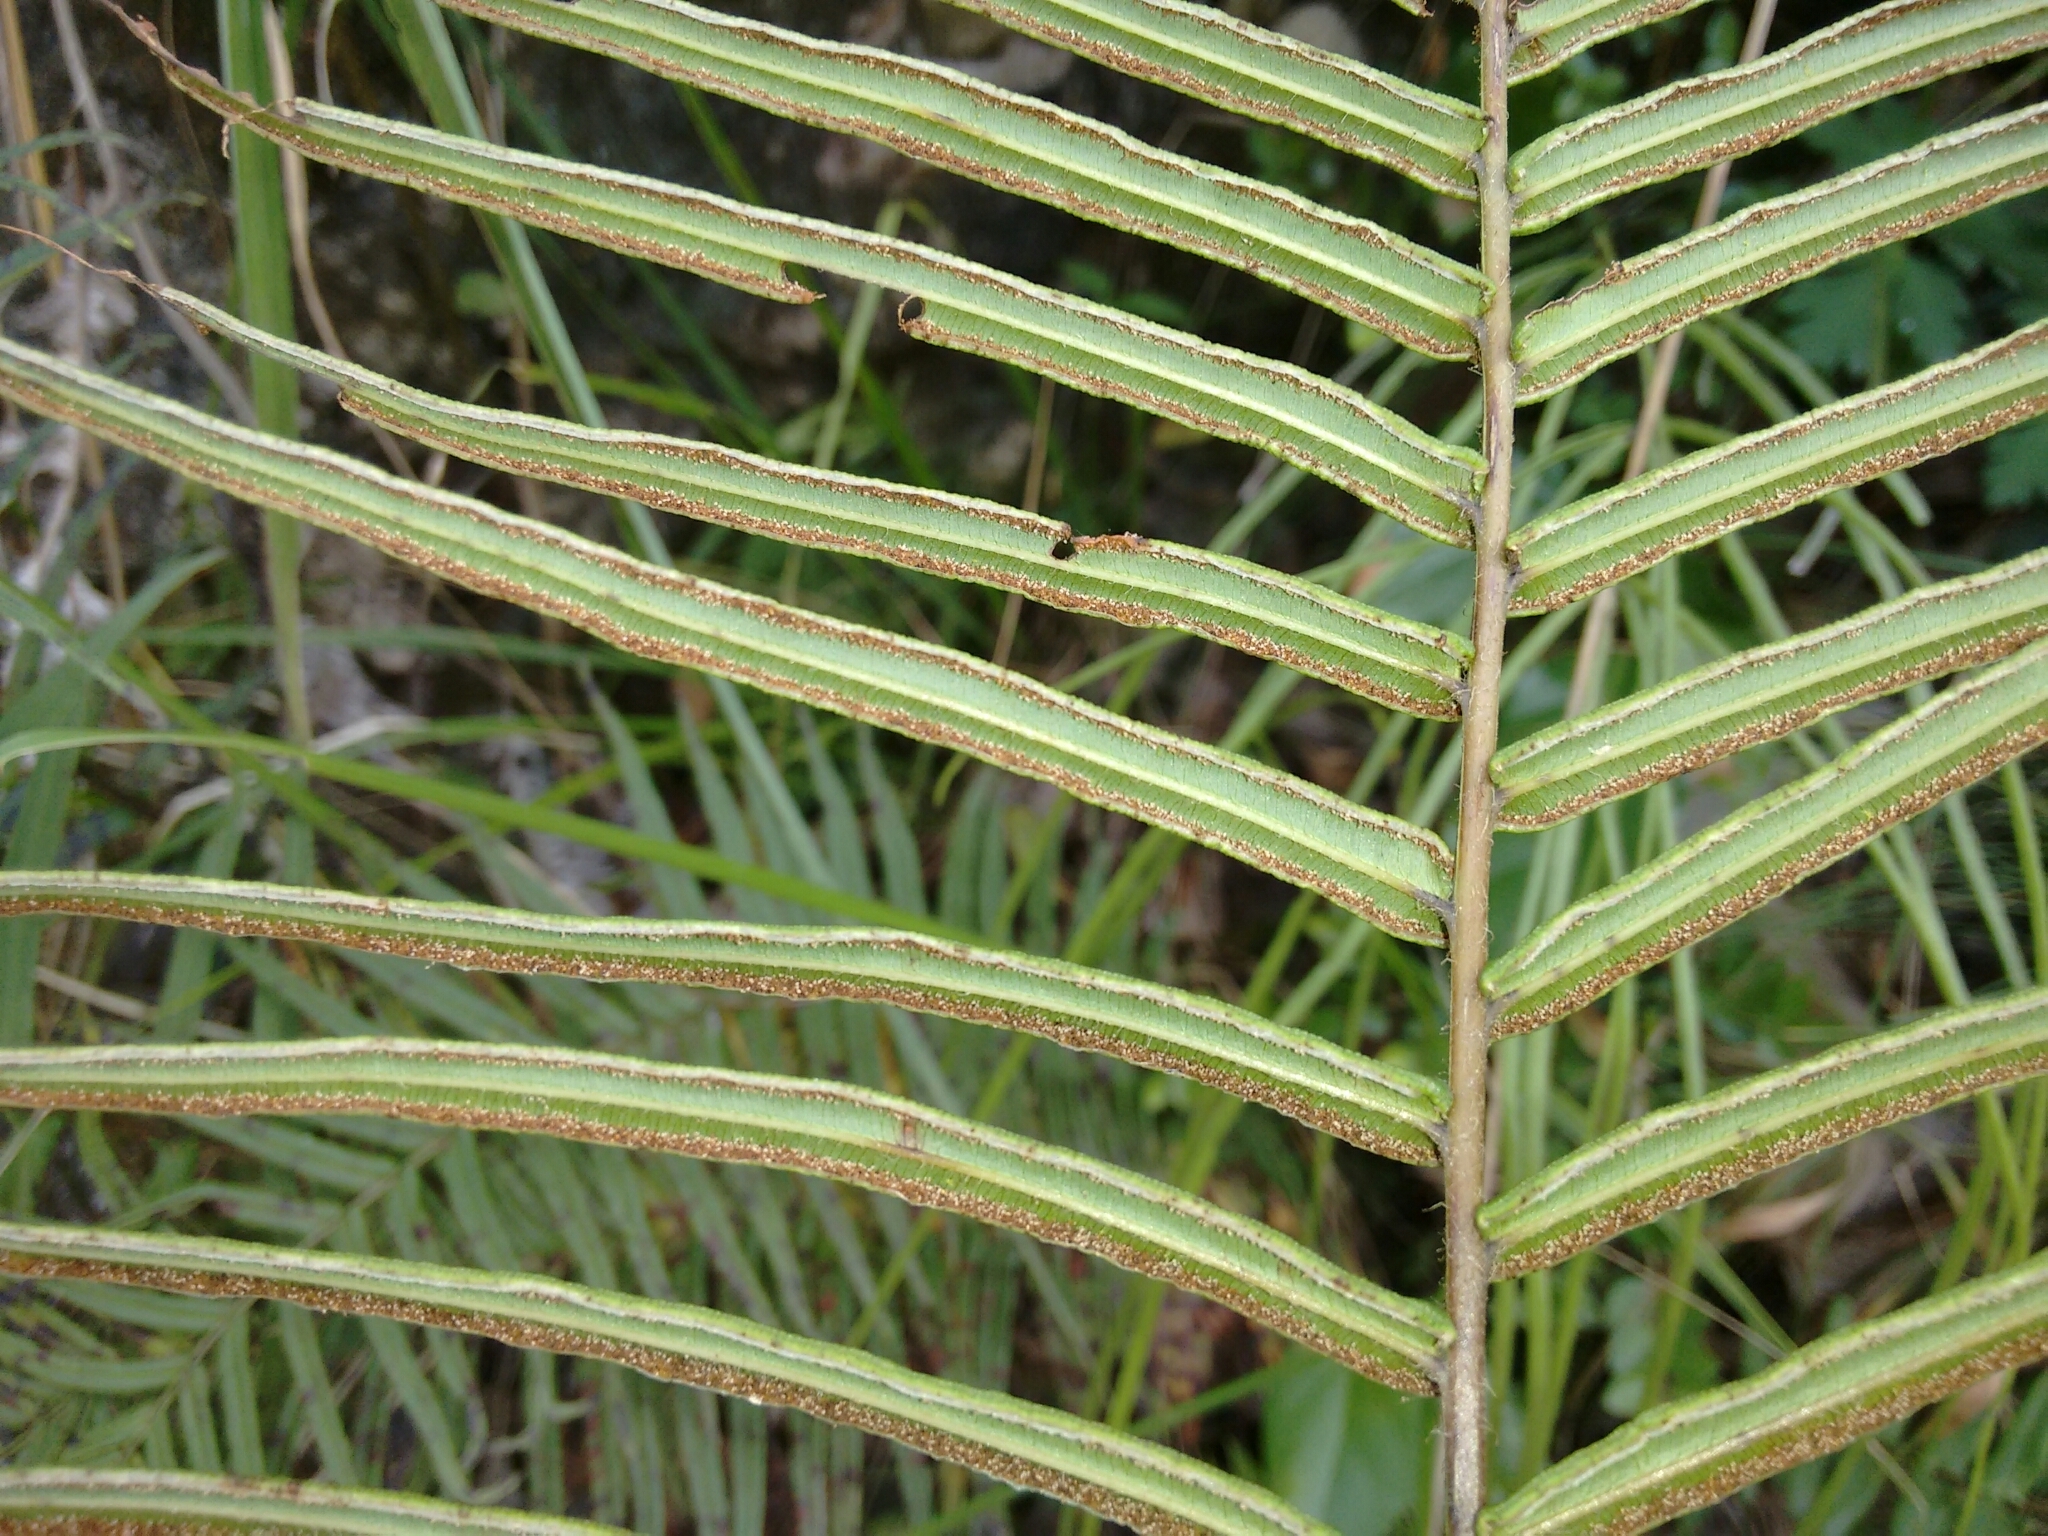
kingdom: Plantae
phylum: Tracheophyta
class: Polypodiopsida
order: Polypodiales
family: Pteridaceae
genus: Pteris
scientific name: Pteris vittata
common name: Ladder brake
